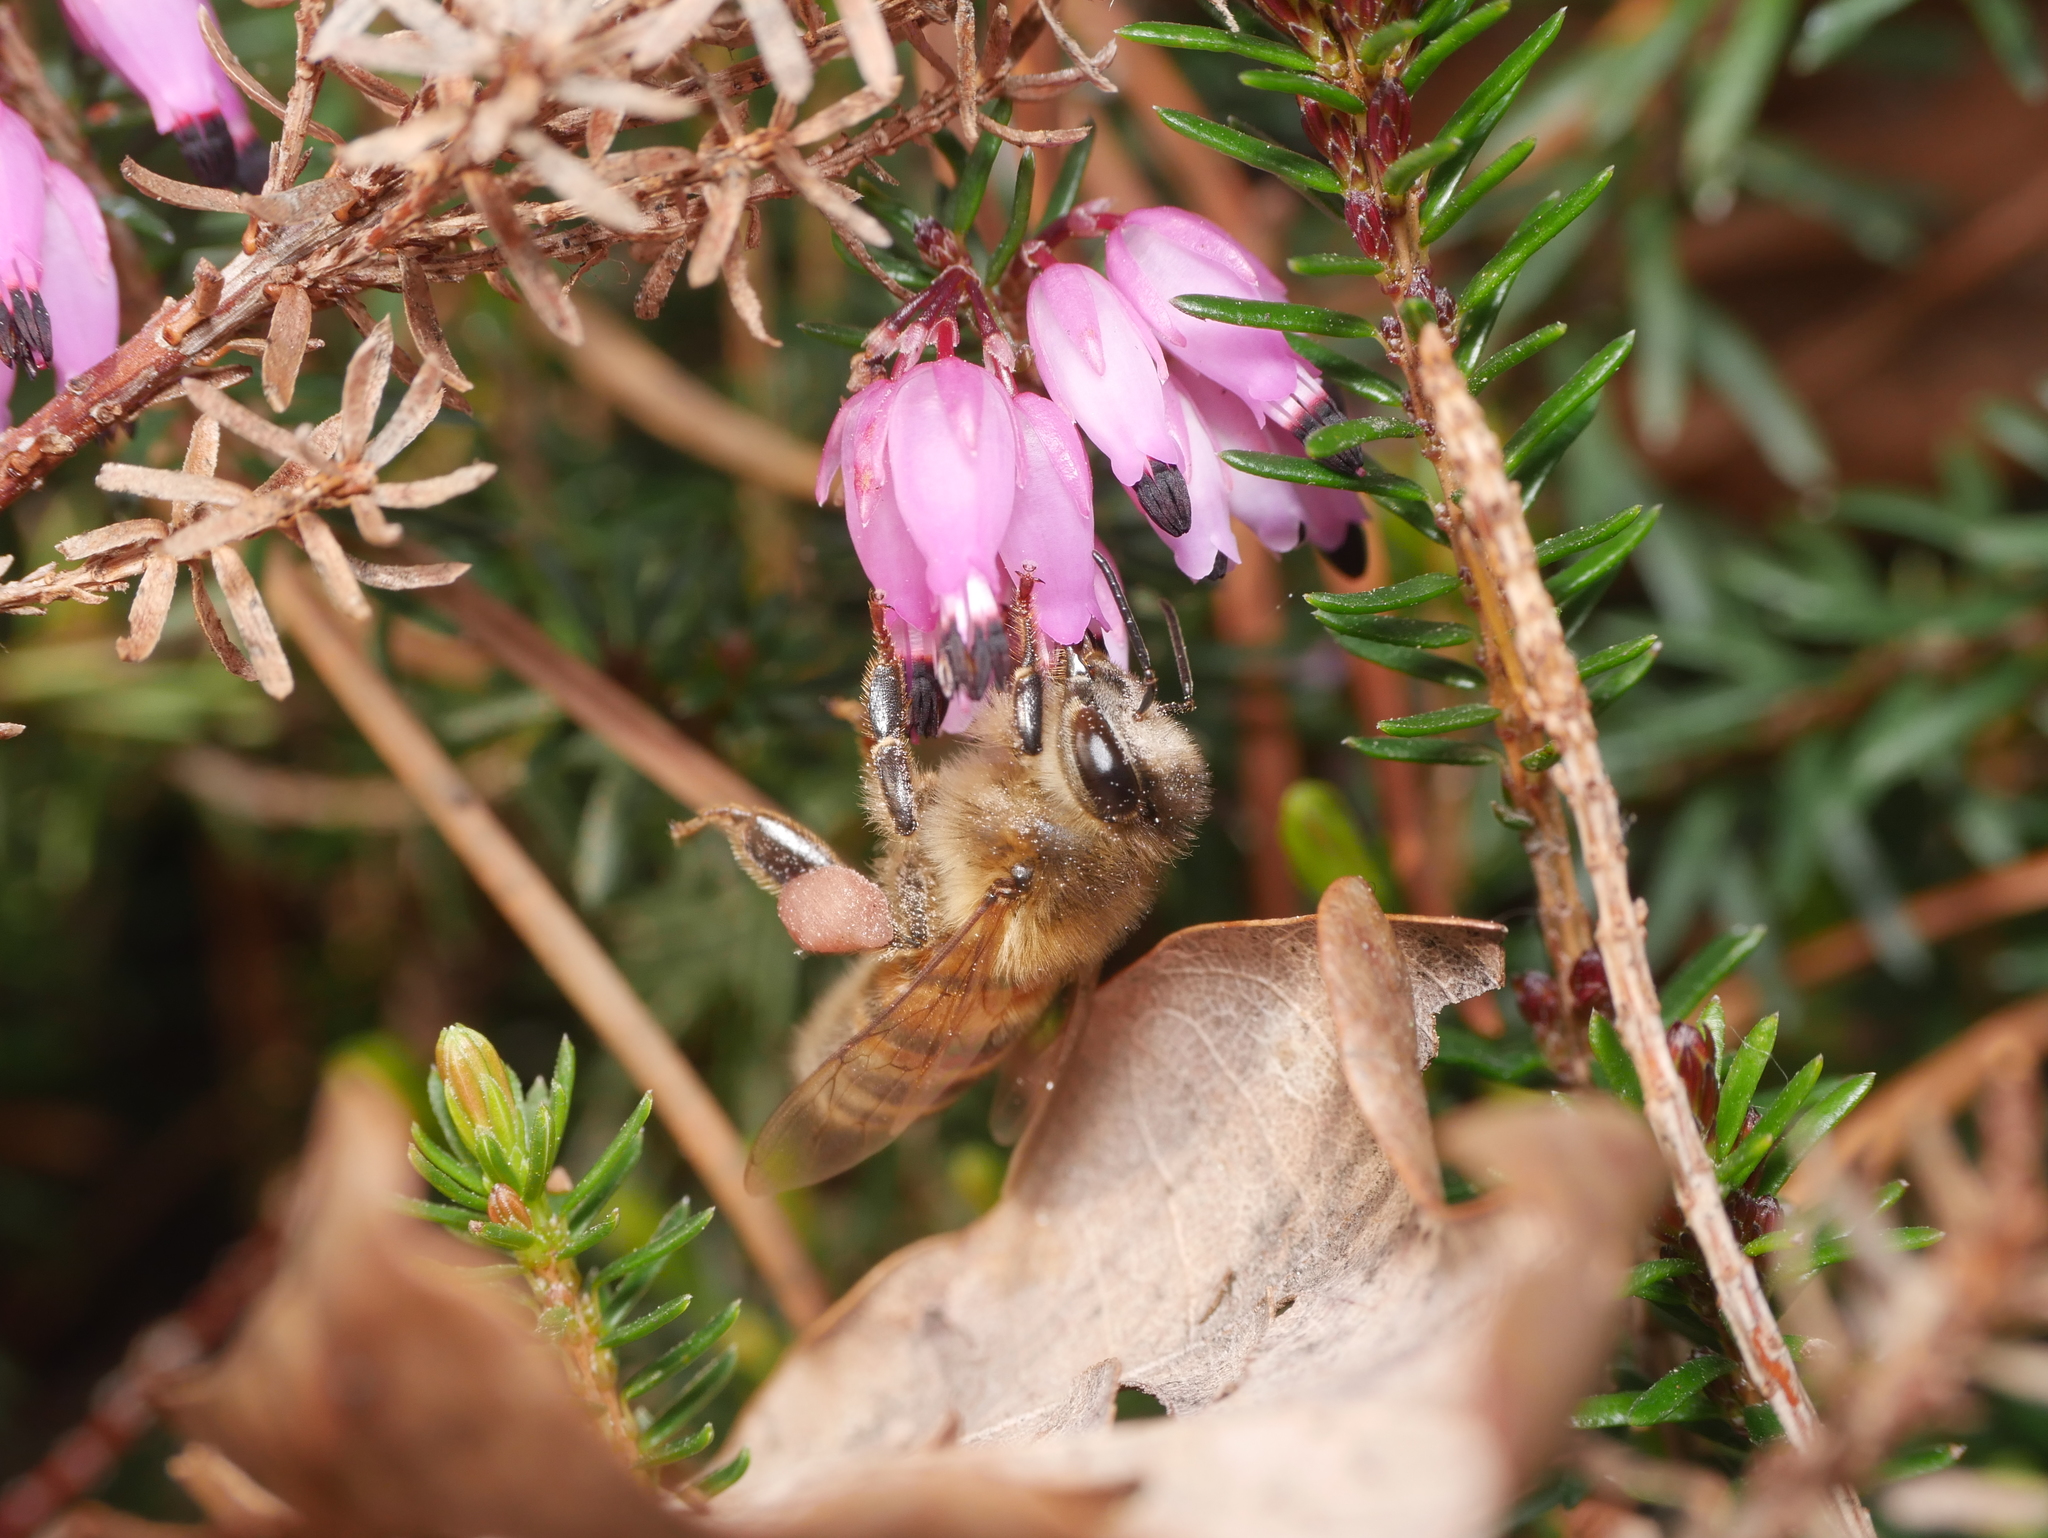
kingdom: Animalia
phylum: Arthropoda
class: Insecta
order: Hymenoptera
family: Apidae
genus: Apis
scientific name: Apis mellifera
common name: Honey bee
